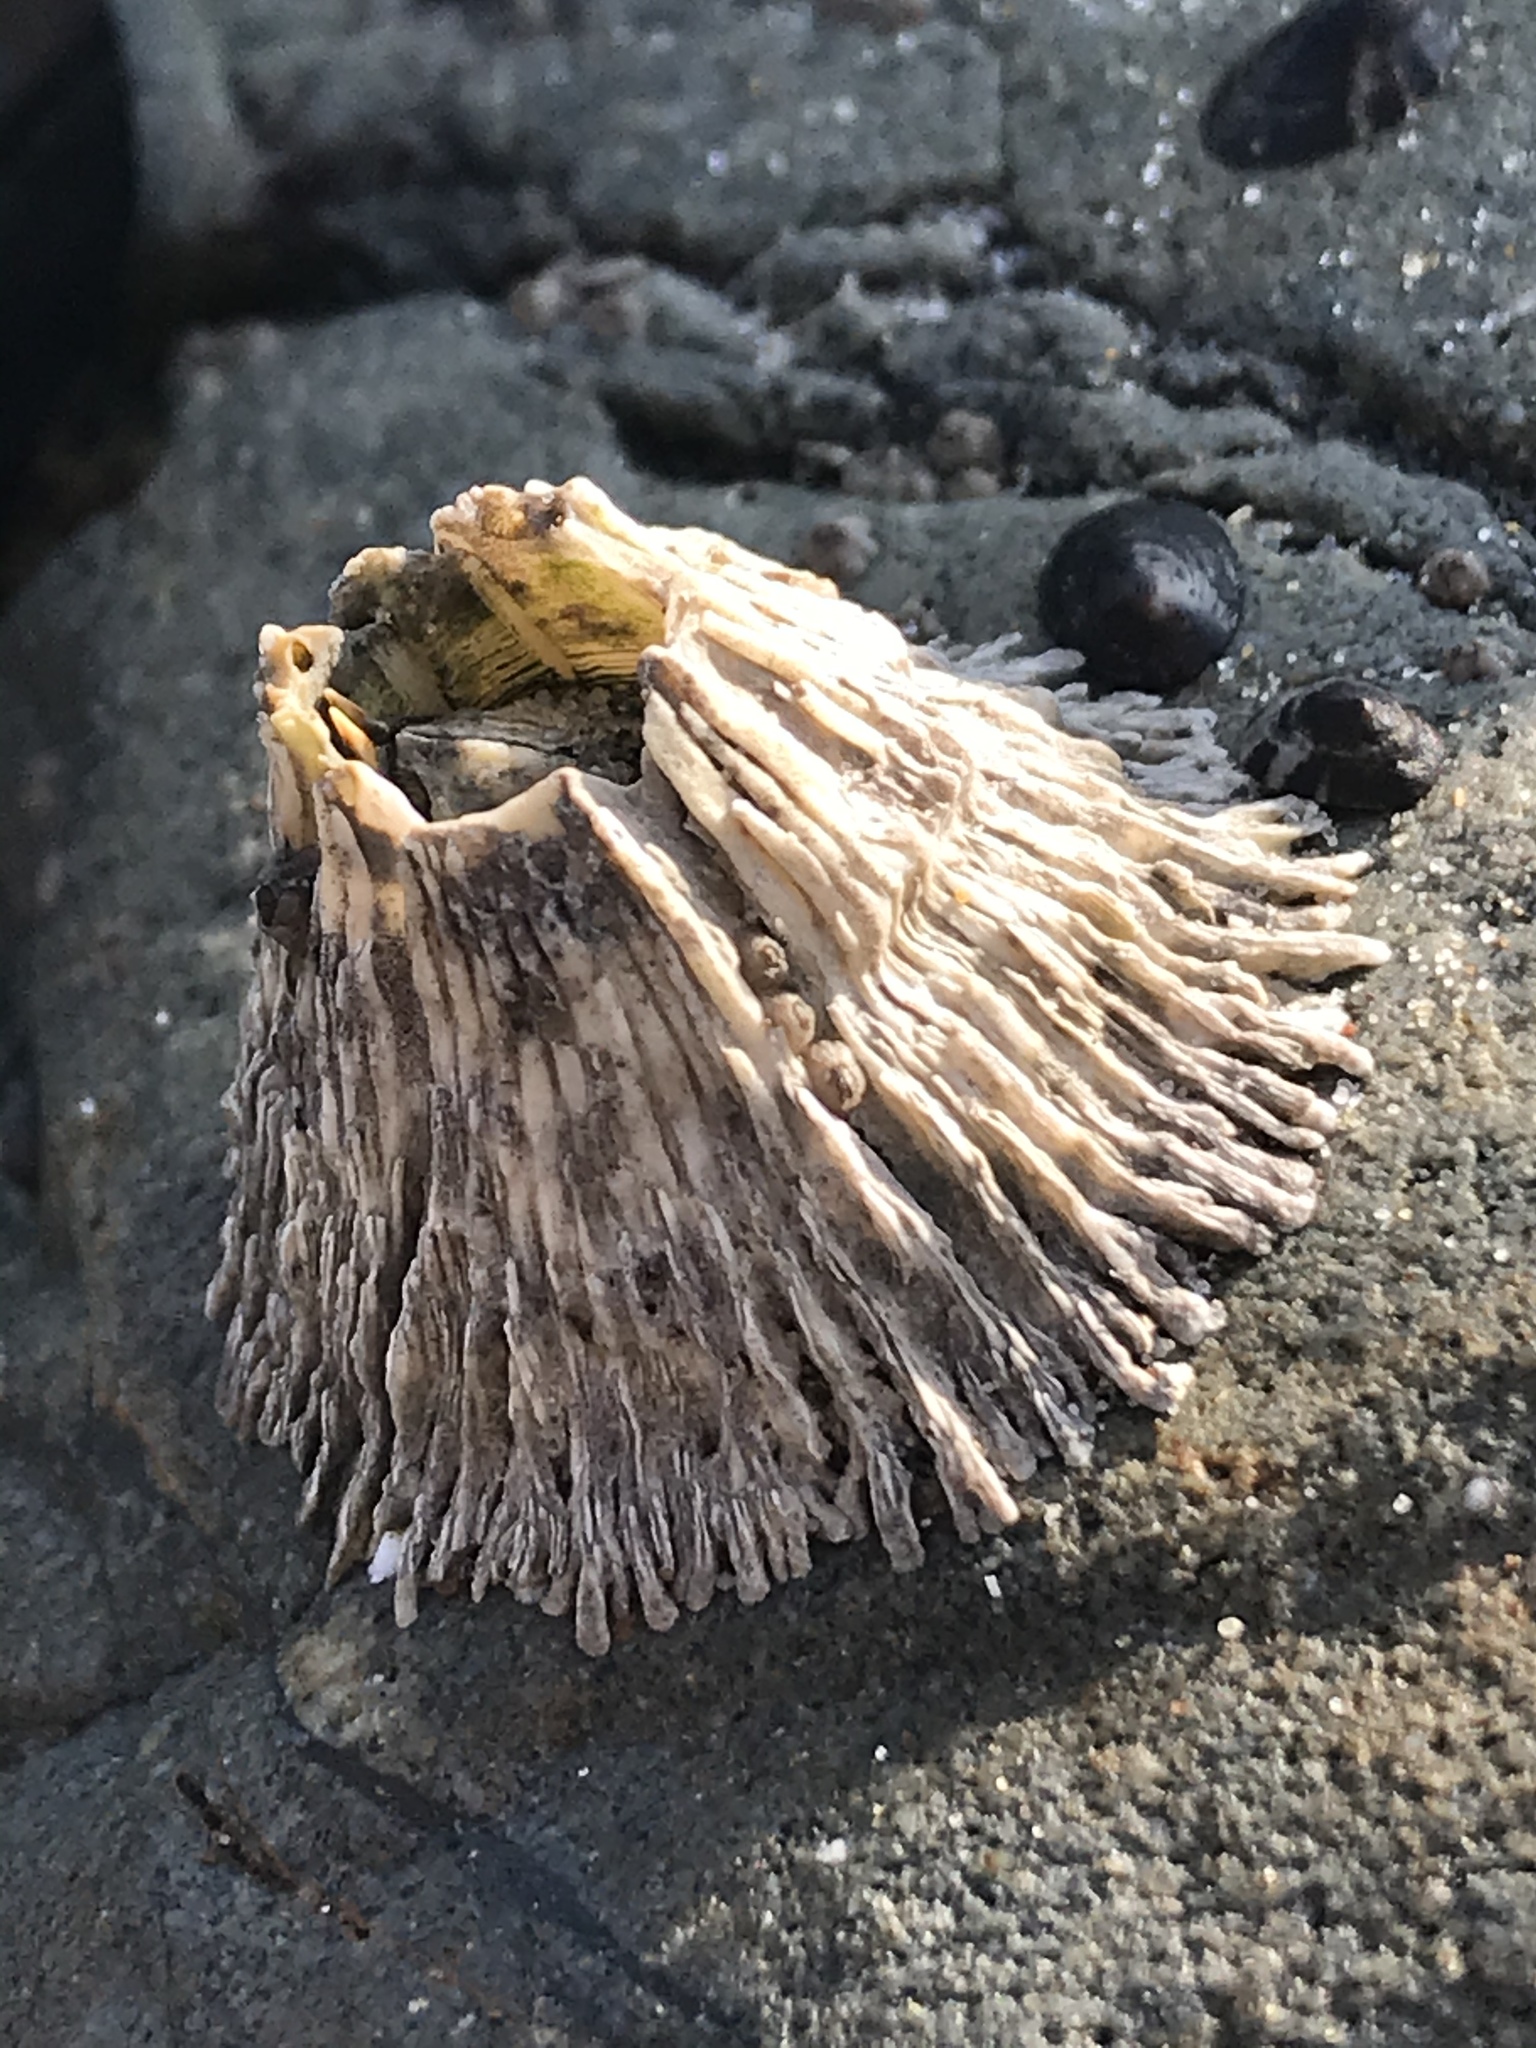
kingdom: Animalia
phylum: Arthropoda
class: Maxillopoda
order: Sessilia
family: Archaeobalanidae
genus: Semibalanus
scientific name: Semibalanus cariosus
